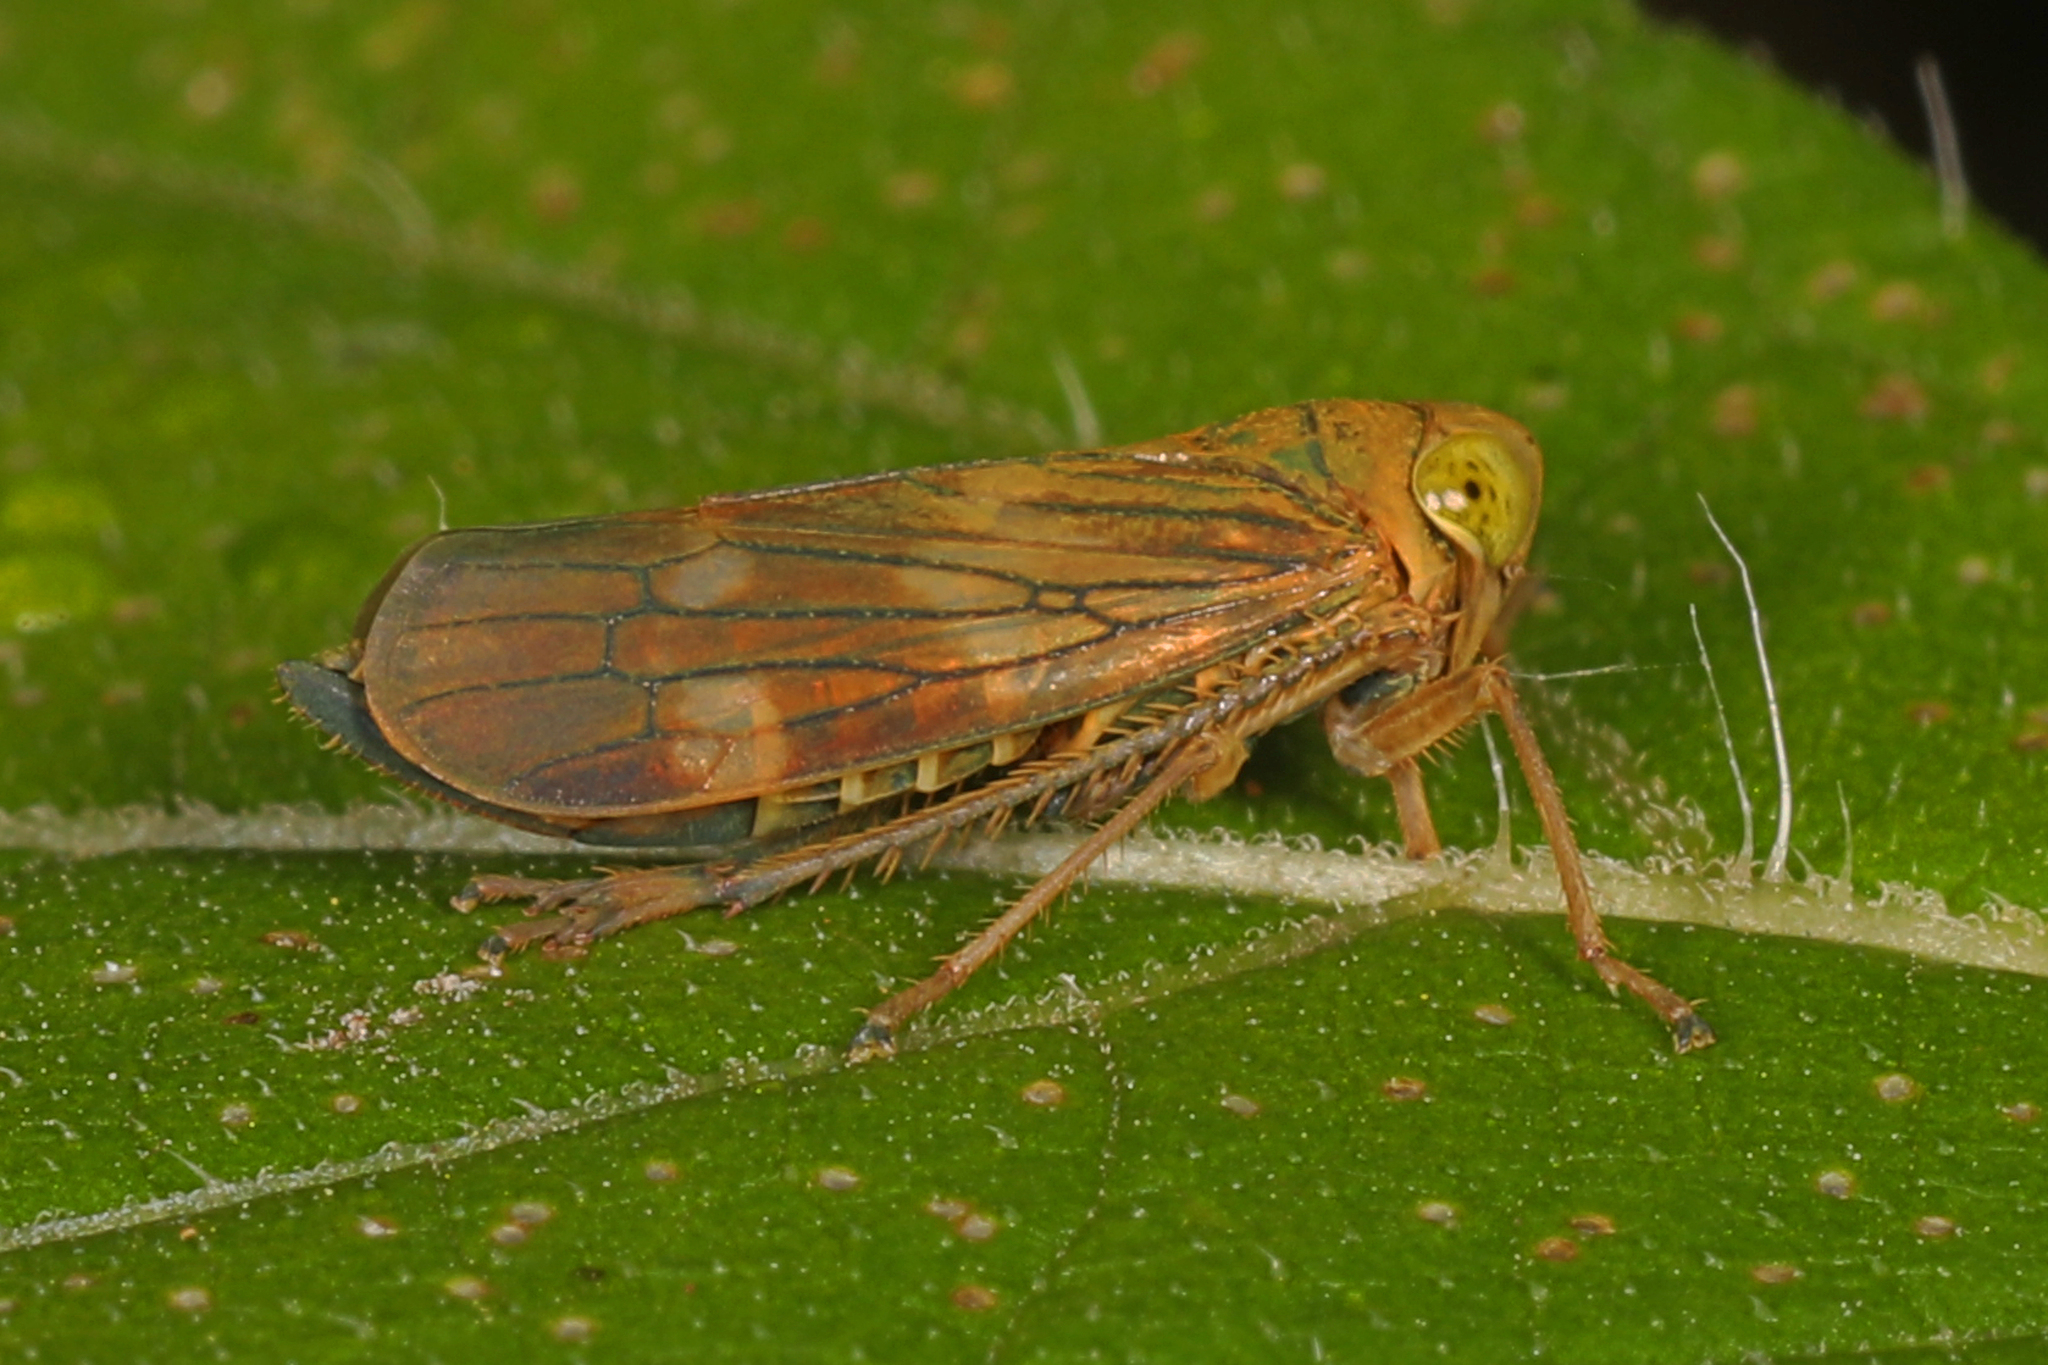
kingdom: Animalia
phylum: Arthropoda
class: Insecta
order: Hemiptera
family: Cicadellidae
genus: Jikradia
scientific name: Jikradia olitoria
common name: Coppery leafhopper
